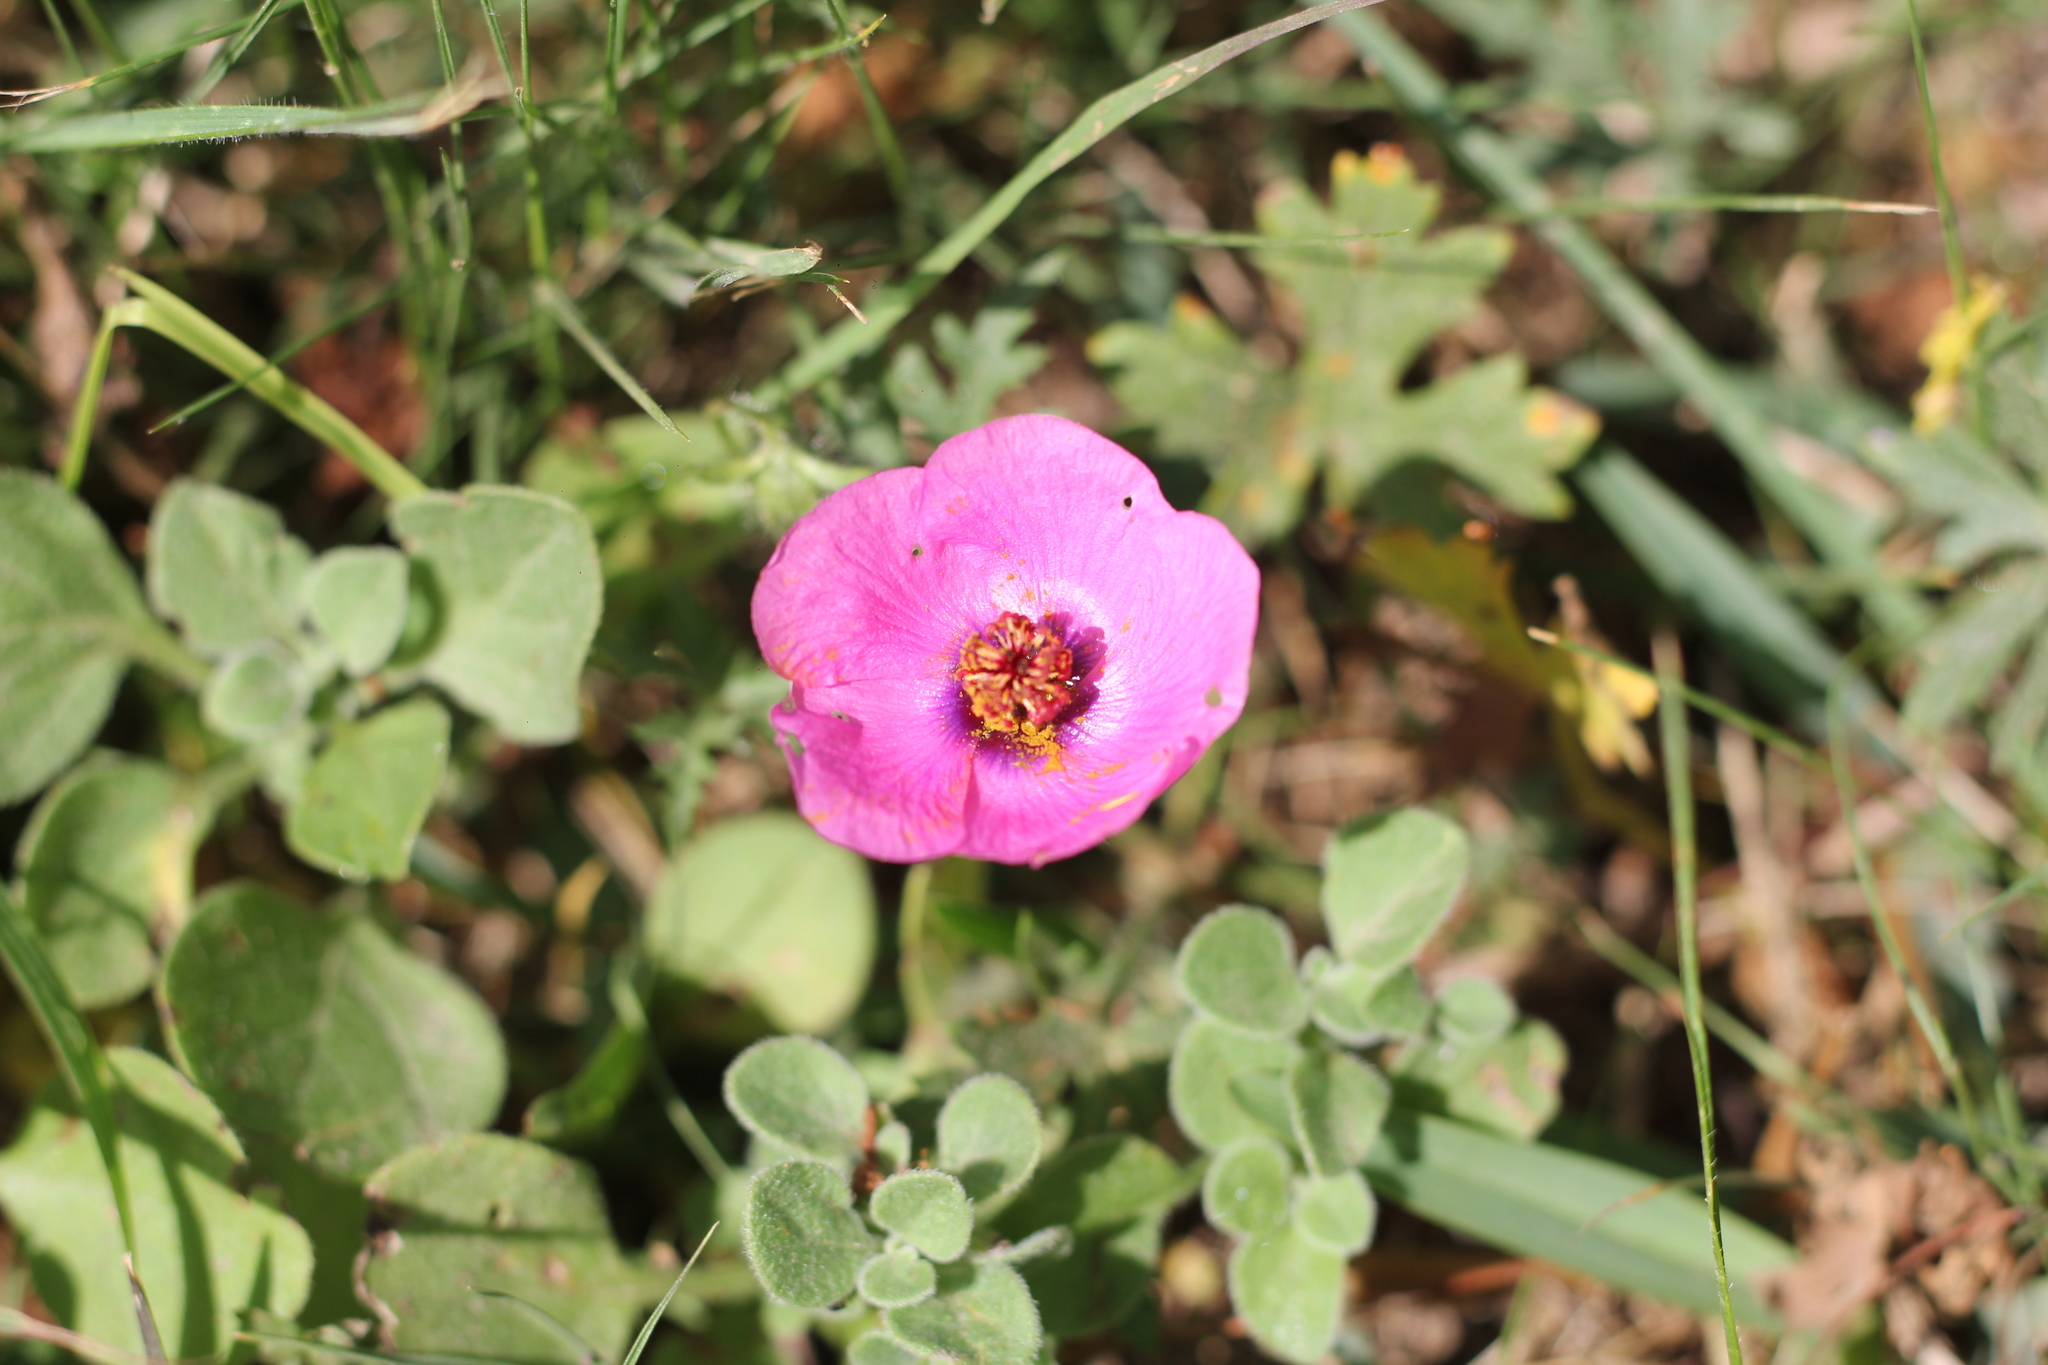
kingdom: Plantae
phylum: Tracheophyta
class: Magnoliopsida
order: Malvales
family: Malvaceae
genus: Modiolastrum
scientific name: Modiolastrum gilliesii
